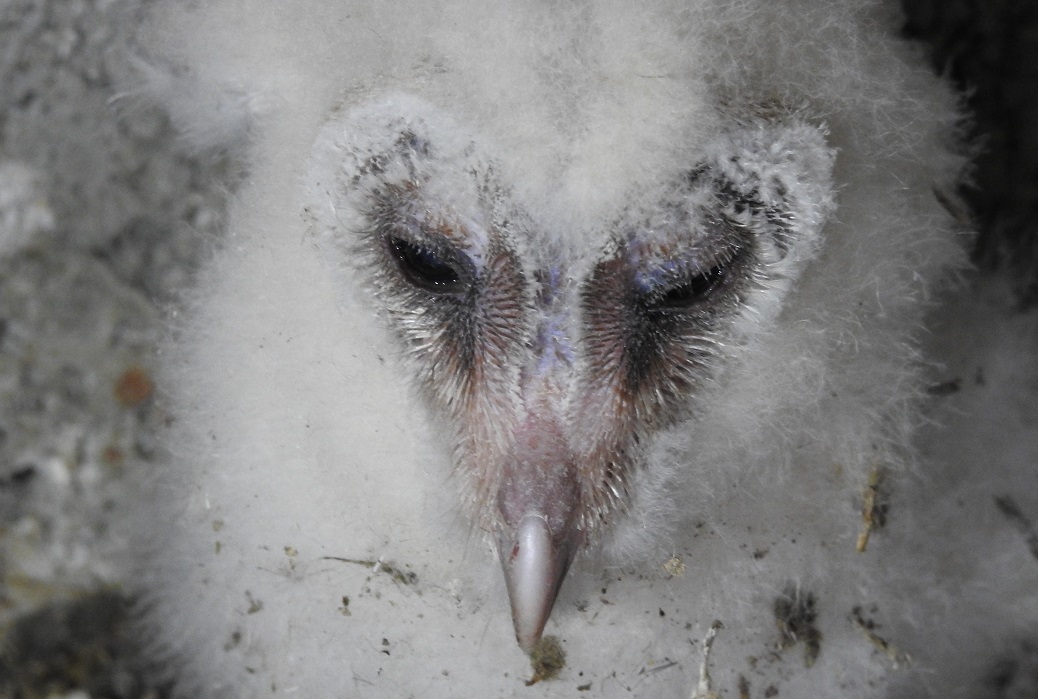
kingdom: Animalia
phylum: Chordata
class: Aves
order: Strigiformes
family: Tytonidae
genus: Tyto
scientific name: Tyto alba
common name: Barn owl
